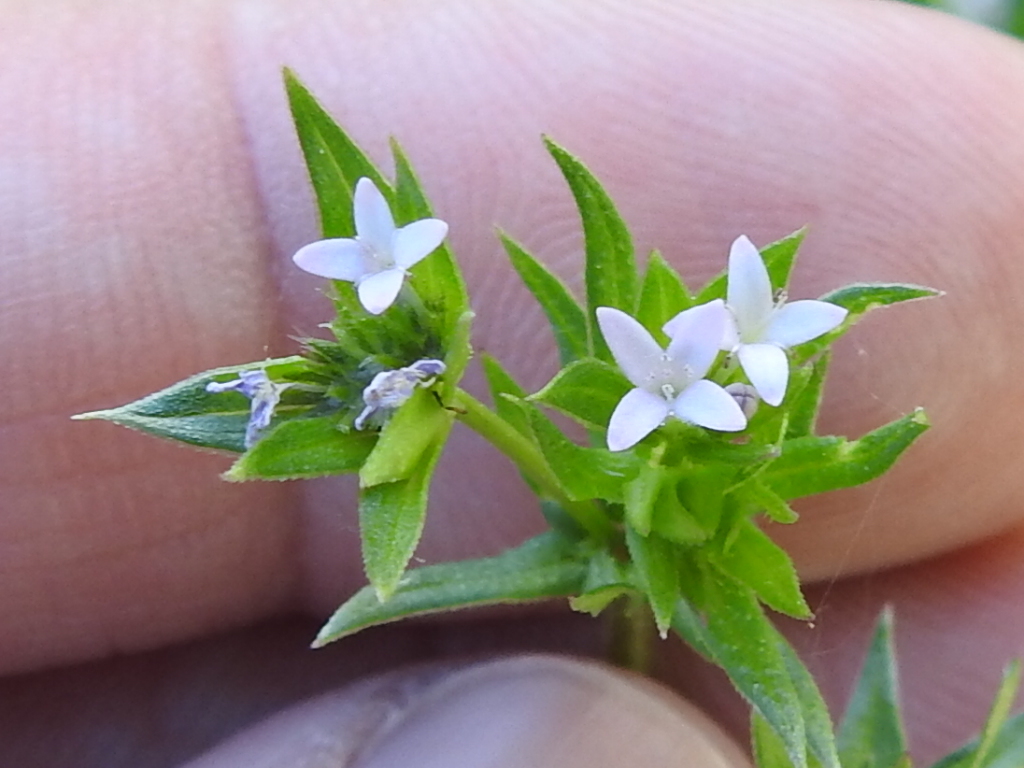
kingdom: Plantae
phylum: Tracheophyta
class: Magnoliopsida
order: Gentianales
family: Rubiaceae
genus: Sherardia
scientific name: Sherardia arvensis
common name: Field madder
